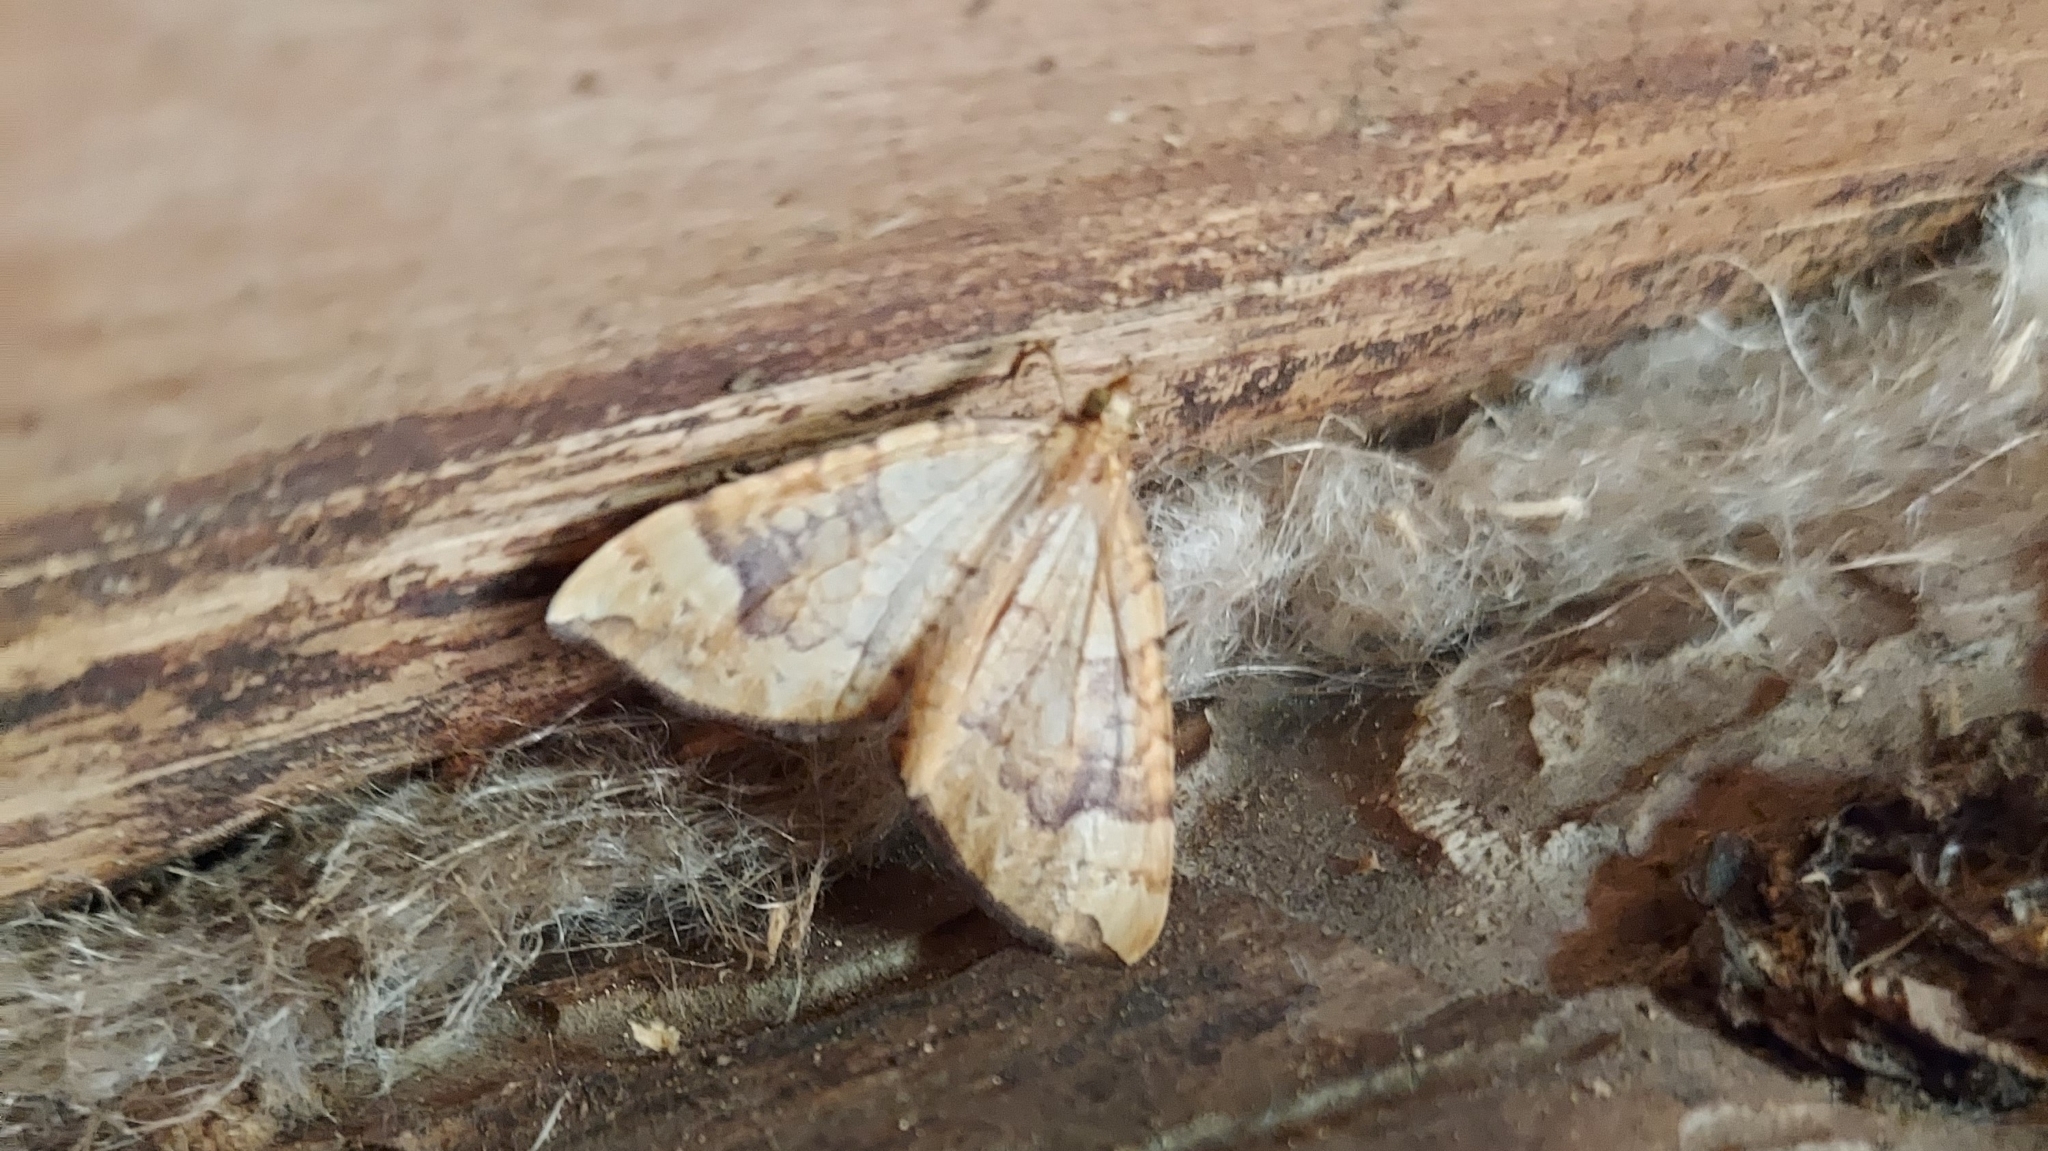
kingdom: Animalia
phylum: Arthropoda
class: Insecta
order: Lepidoptera
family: Geometridae
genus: Eulithis
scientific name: Eulithis populata
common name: Northern spinach
